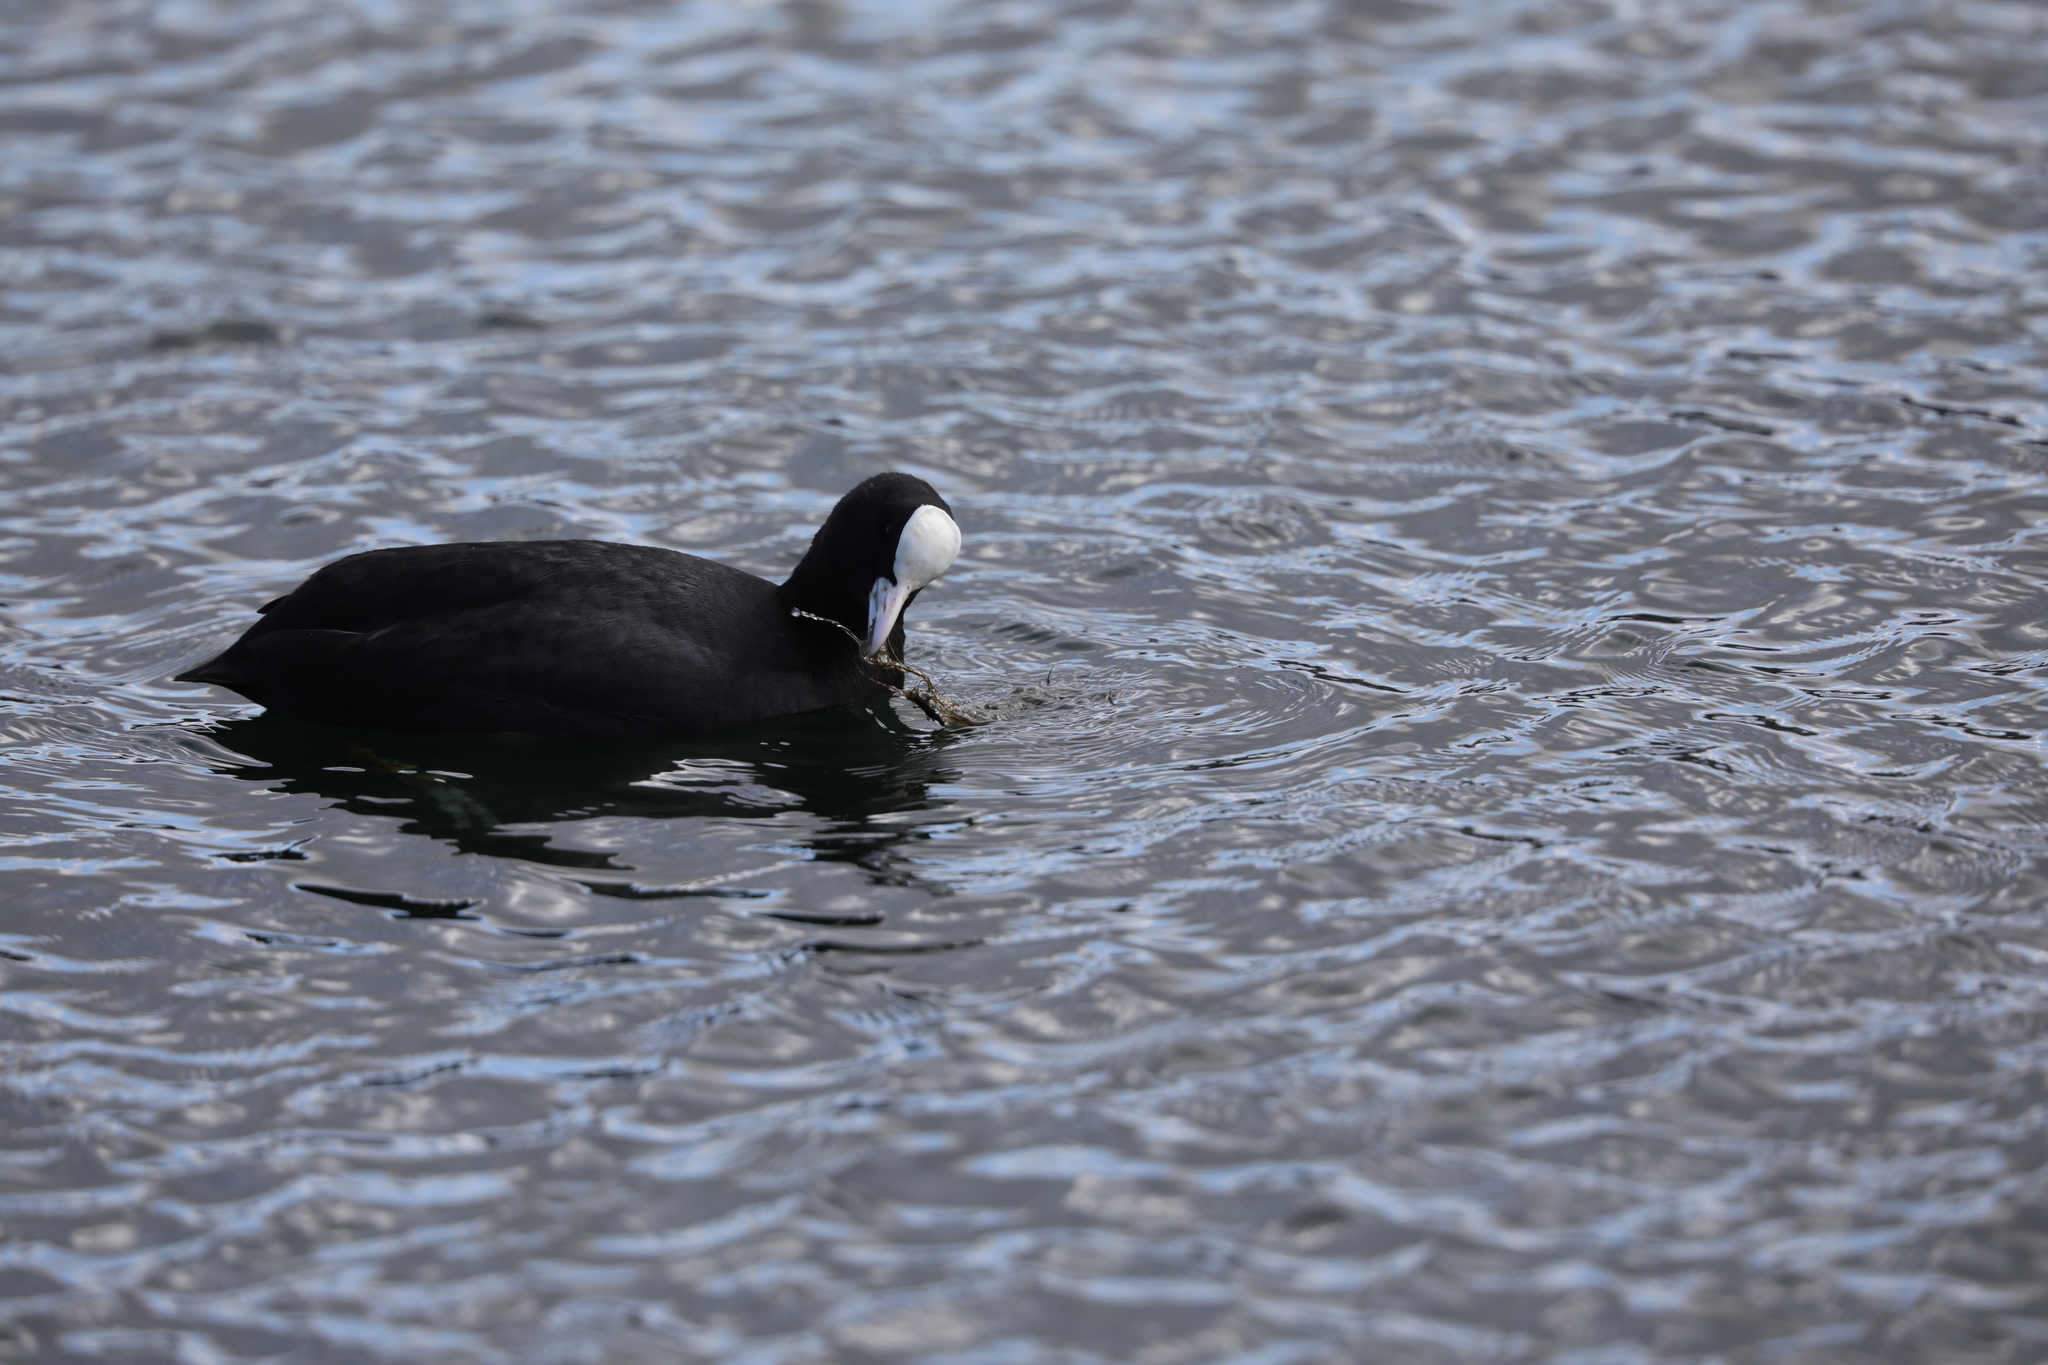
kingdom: Animalia
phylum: Chordata
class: Aves
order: Gruiformes
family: Rallidae
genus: Fulica
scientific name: Fulica atra
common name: Eurasian coot
